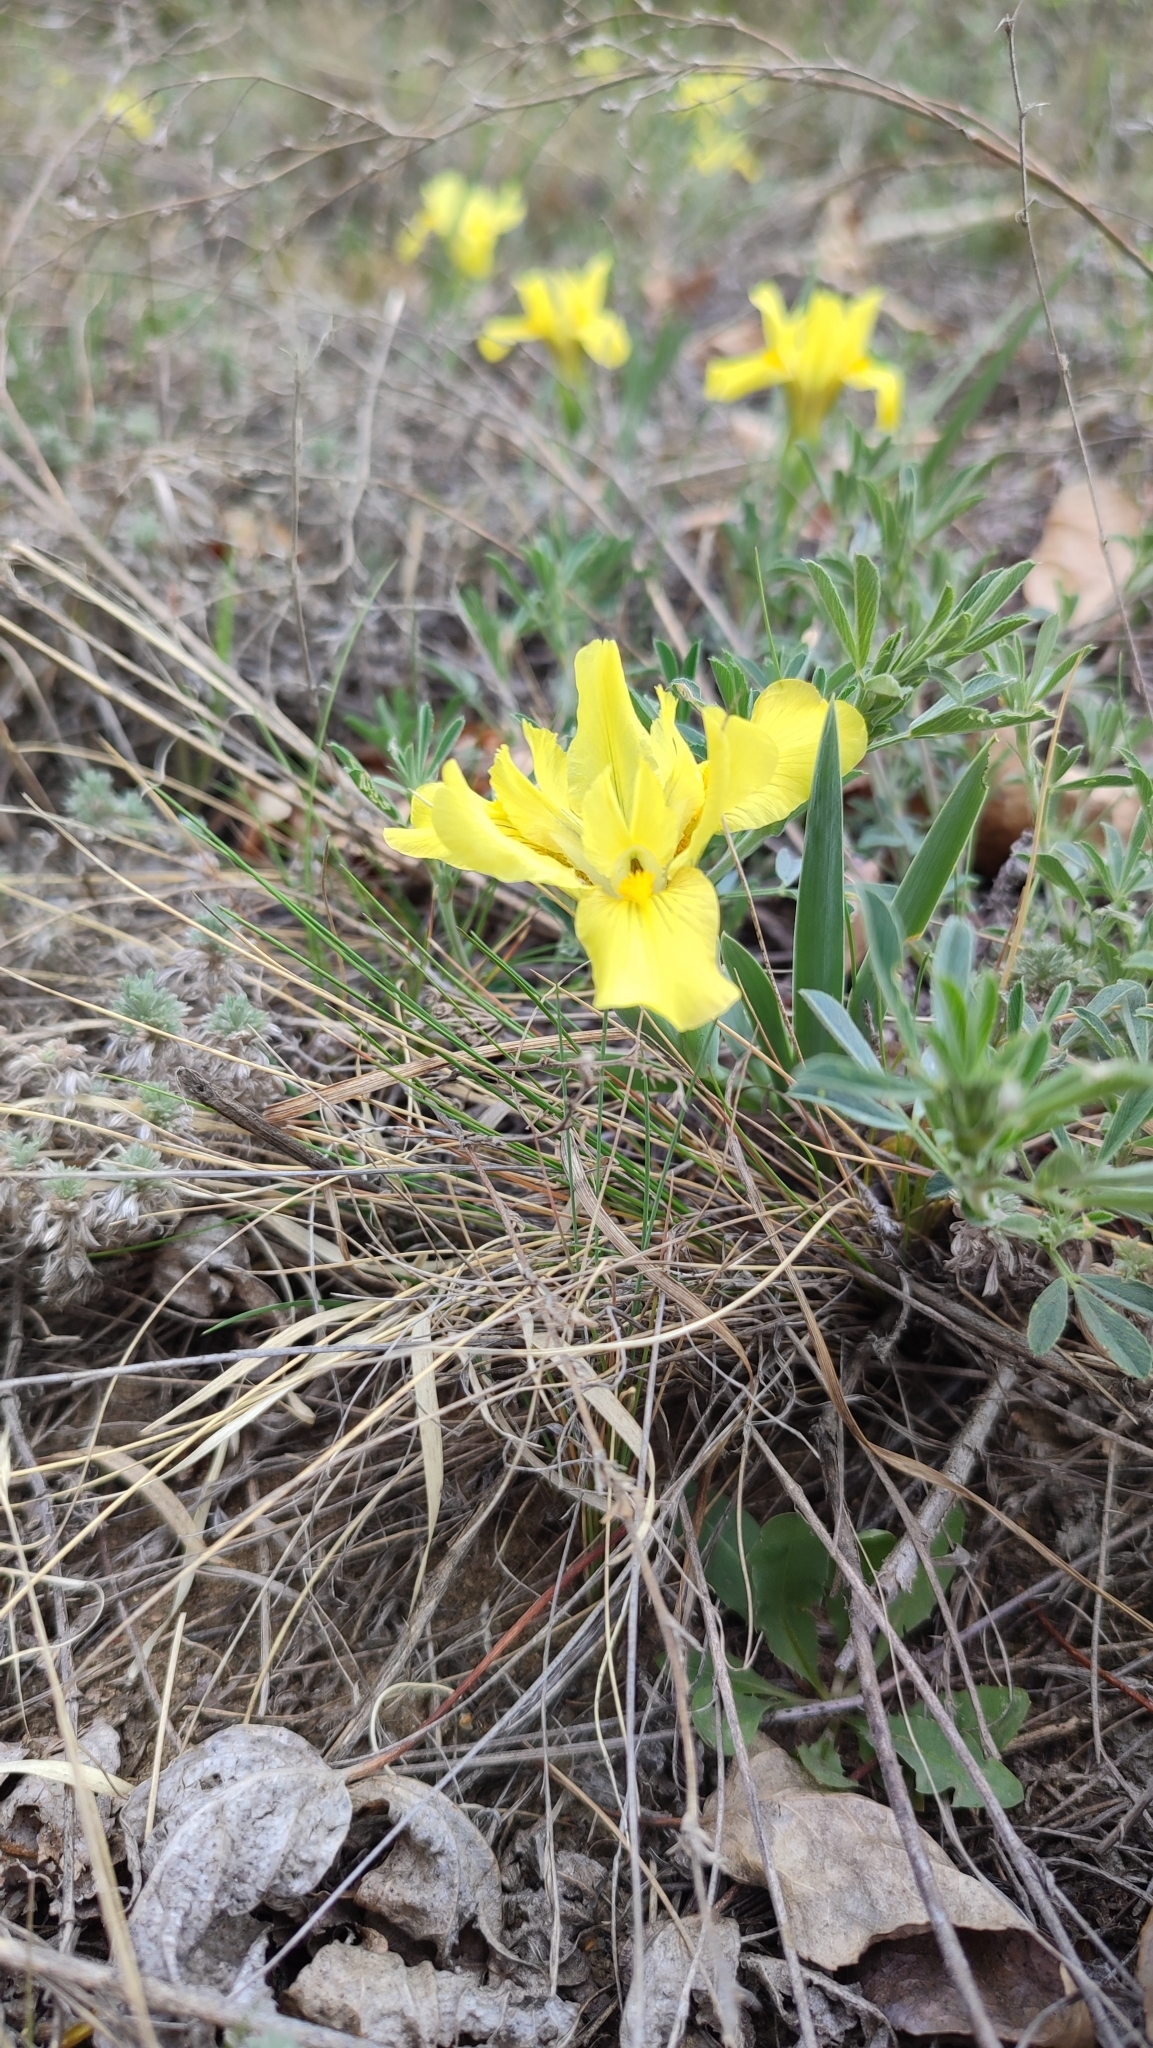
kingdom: Plantae
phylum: Tracheophyta
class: Liliopsida
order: Asparagales
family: Iridaceae
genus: Iris
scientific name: Iris humilis
